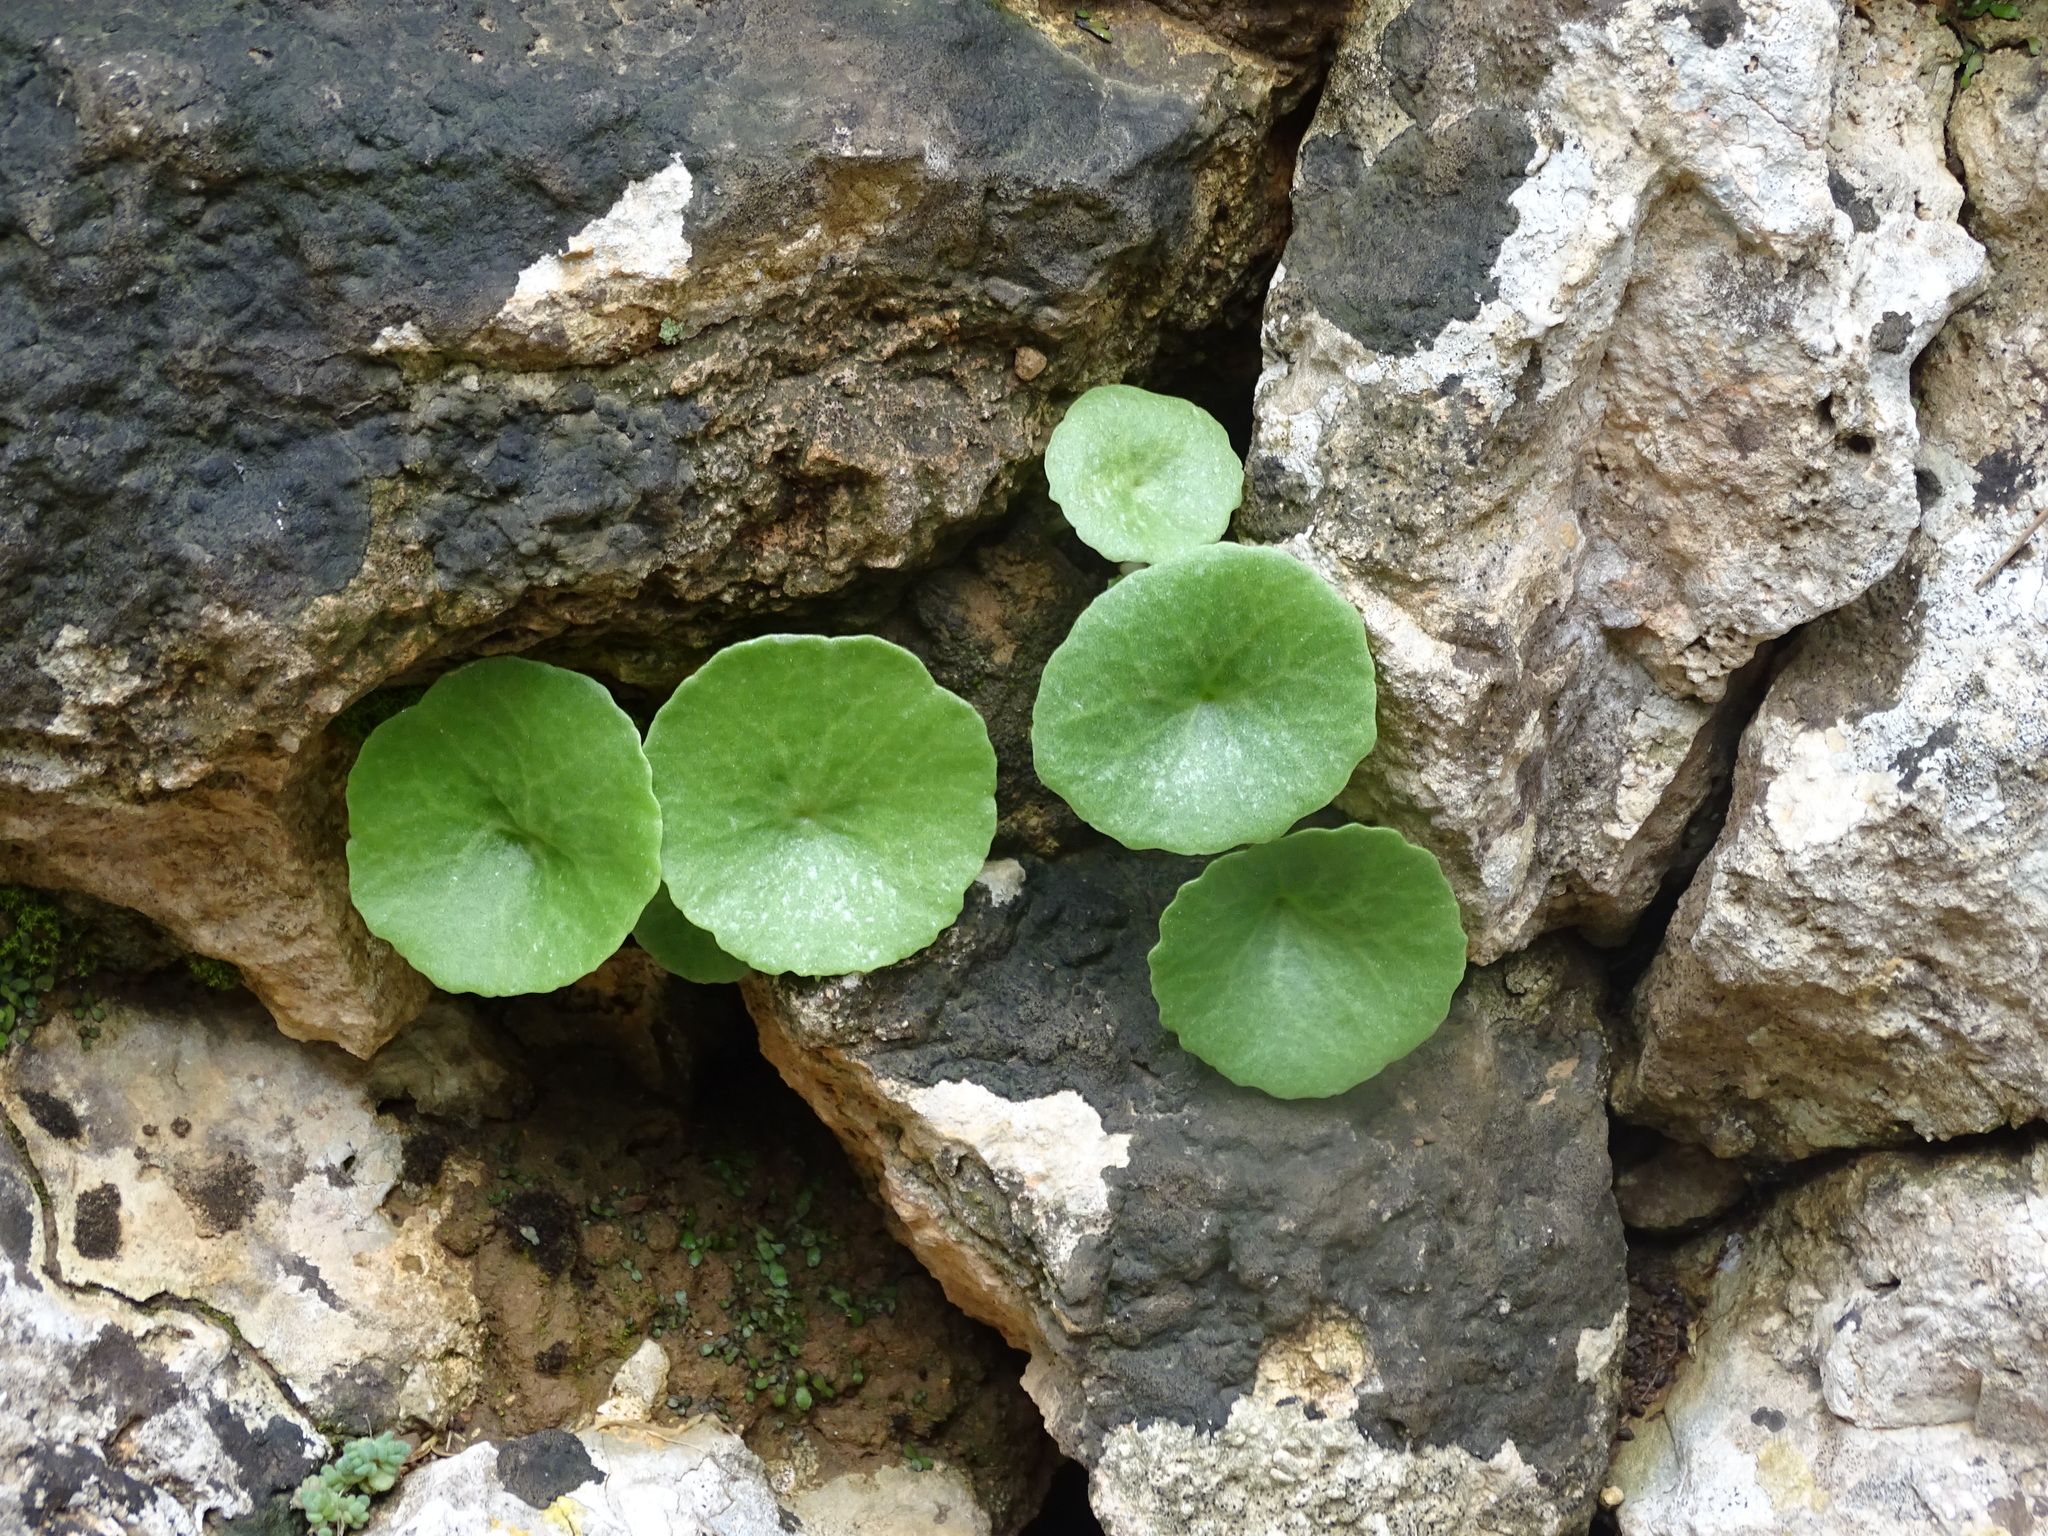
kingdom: Plantae
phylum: Tracheophyta
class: Magnoliopsida
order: Saxifragales
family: Crassulaceae
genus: Umbilicus
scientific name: Umbilicus rupestris
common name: Navelwort
